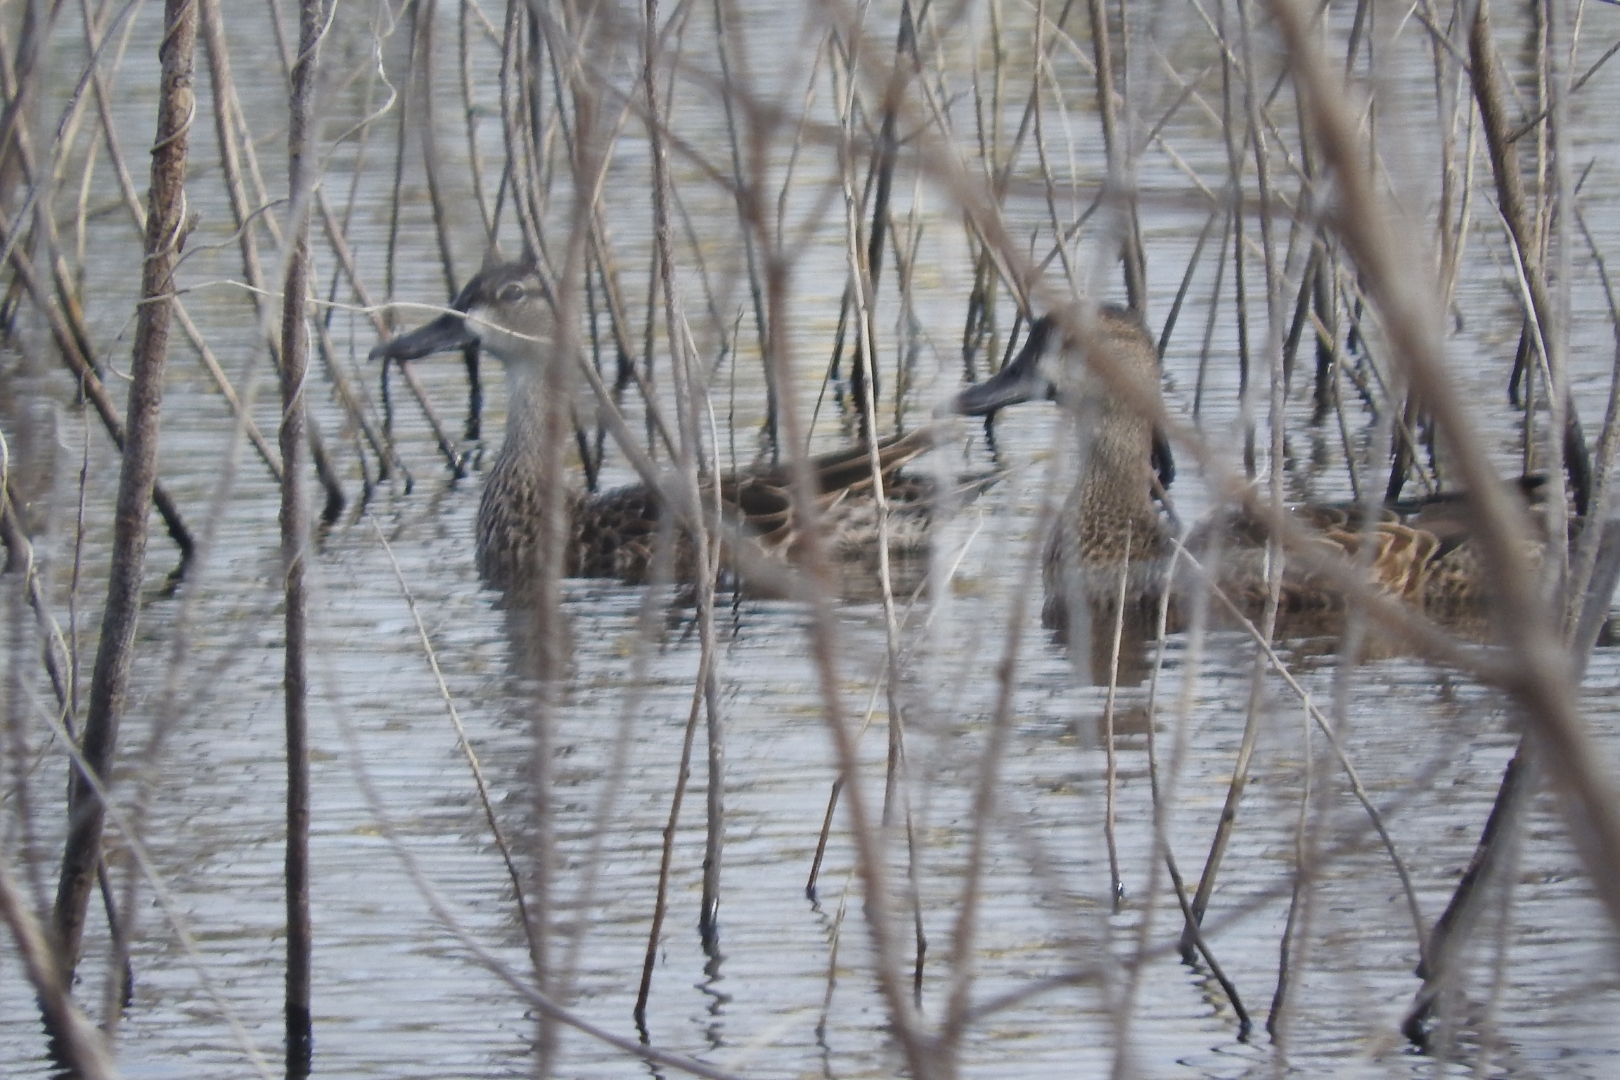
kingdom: Animalia
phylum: Chordata
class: Aves
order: Anseriformes
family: Anatidae
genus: Spatula
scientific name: Spatula discors
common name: Blue-winged teal
